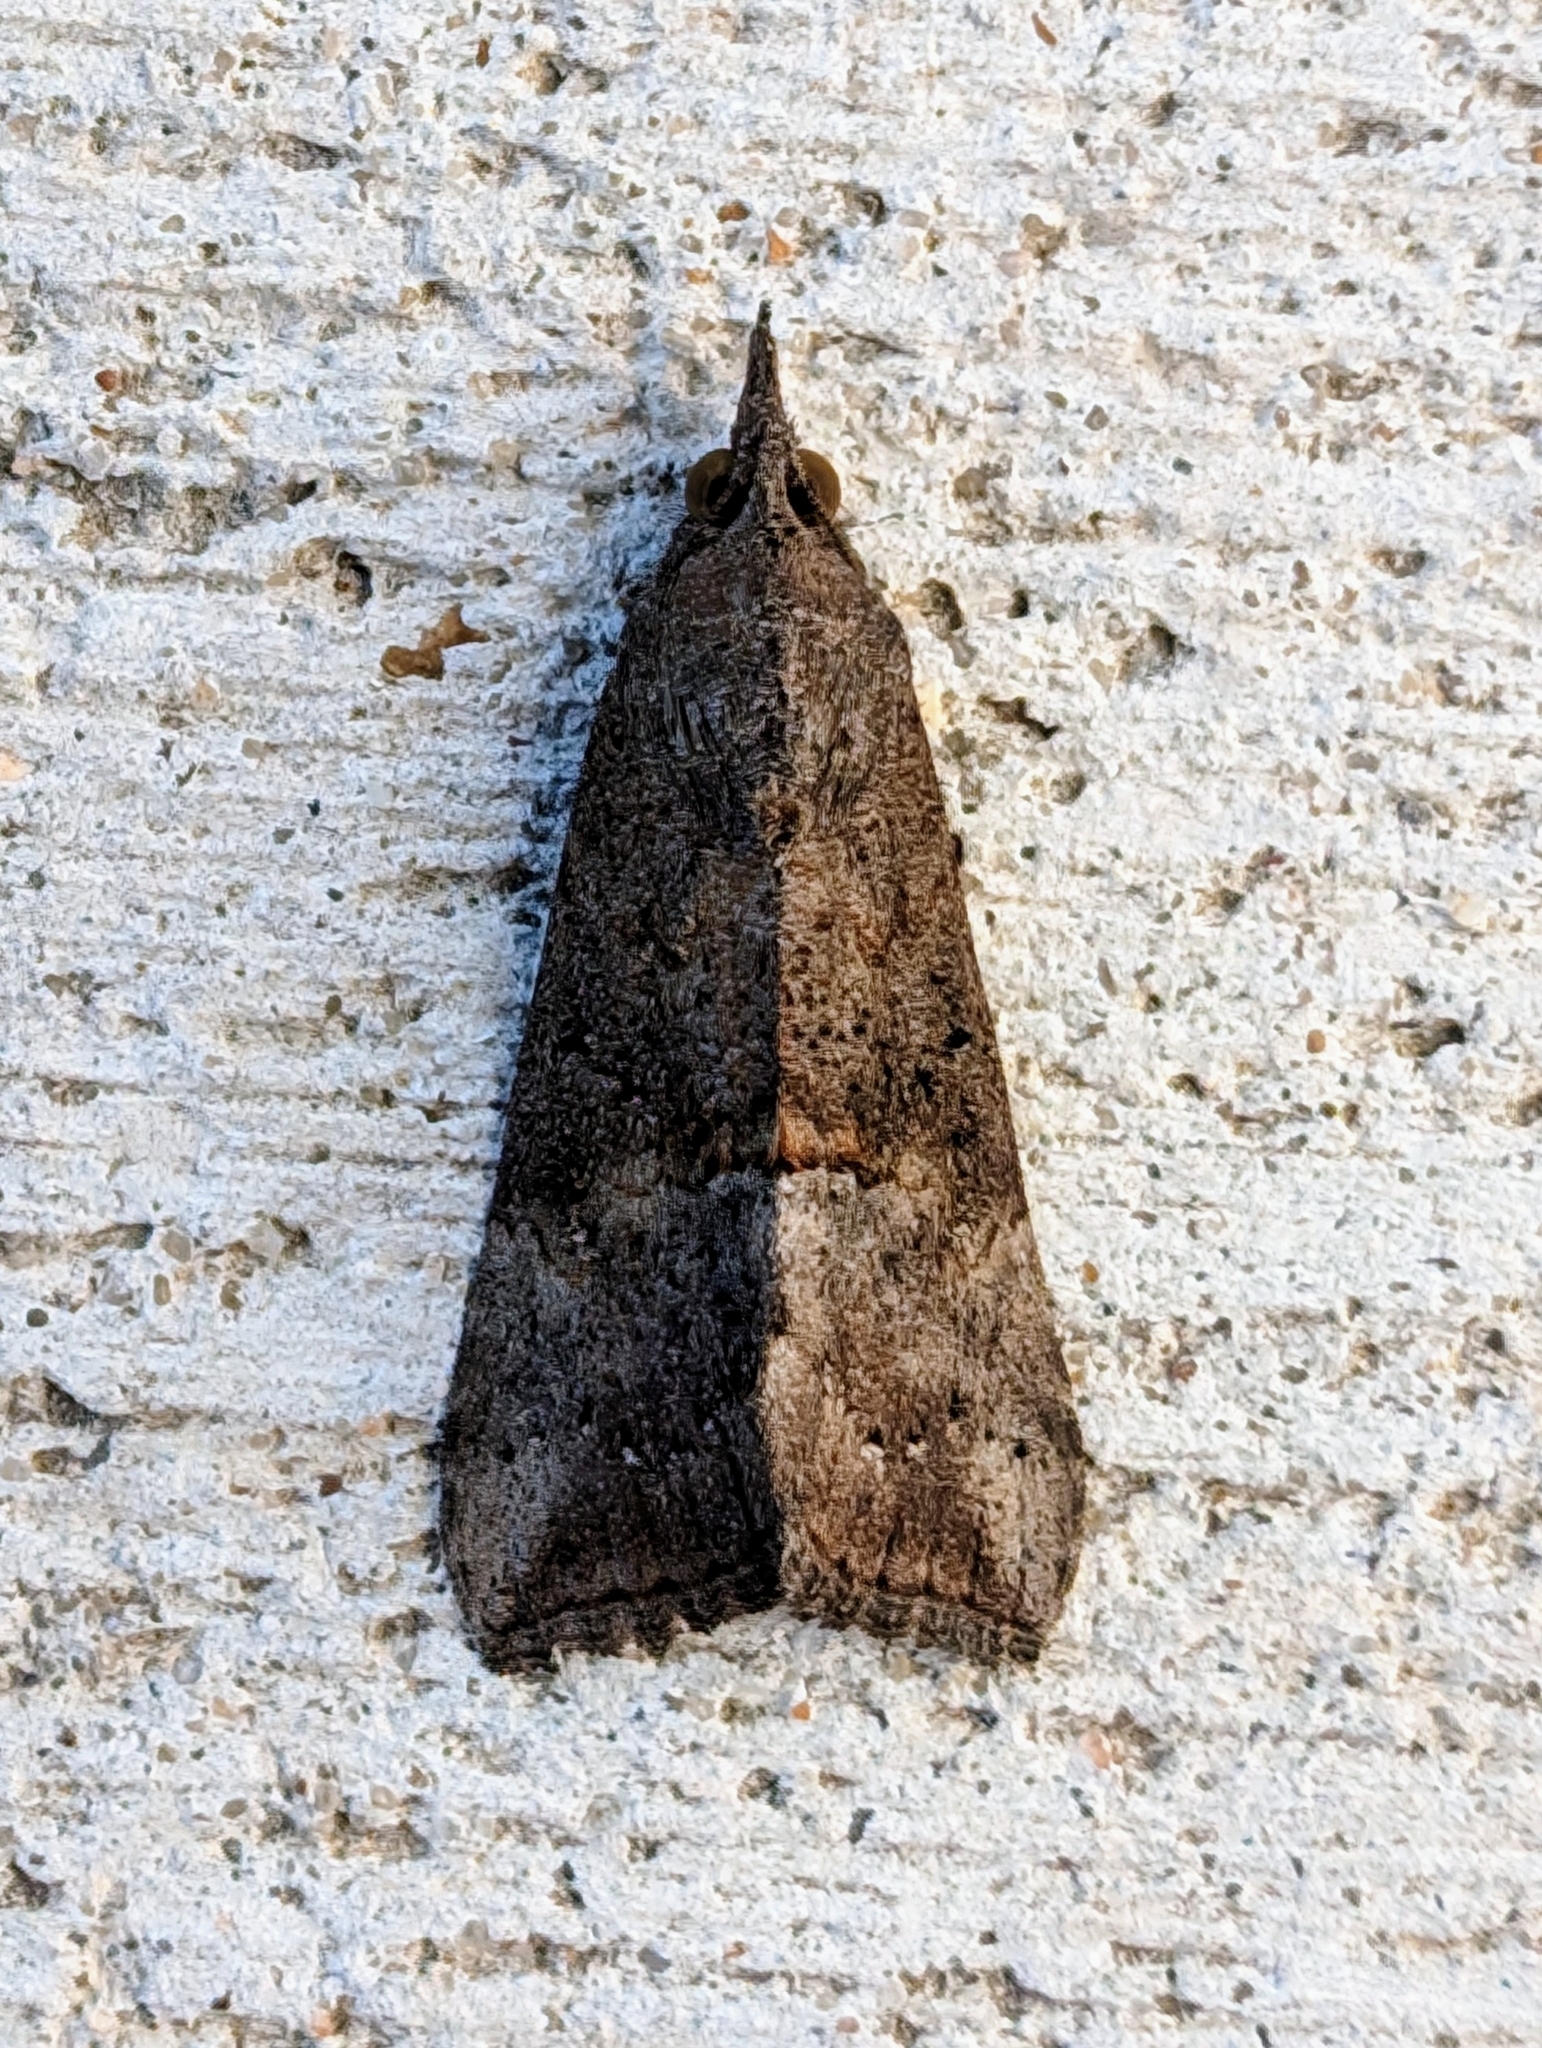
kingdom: Animalia
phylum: Arthropoda
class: Insecta
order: Lepidoptera
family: Erebidae
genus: Hypena
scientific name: Hypena scabra
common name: Green cloverworm
